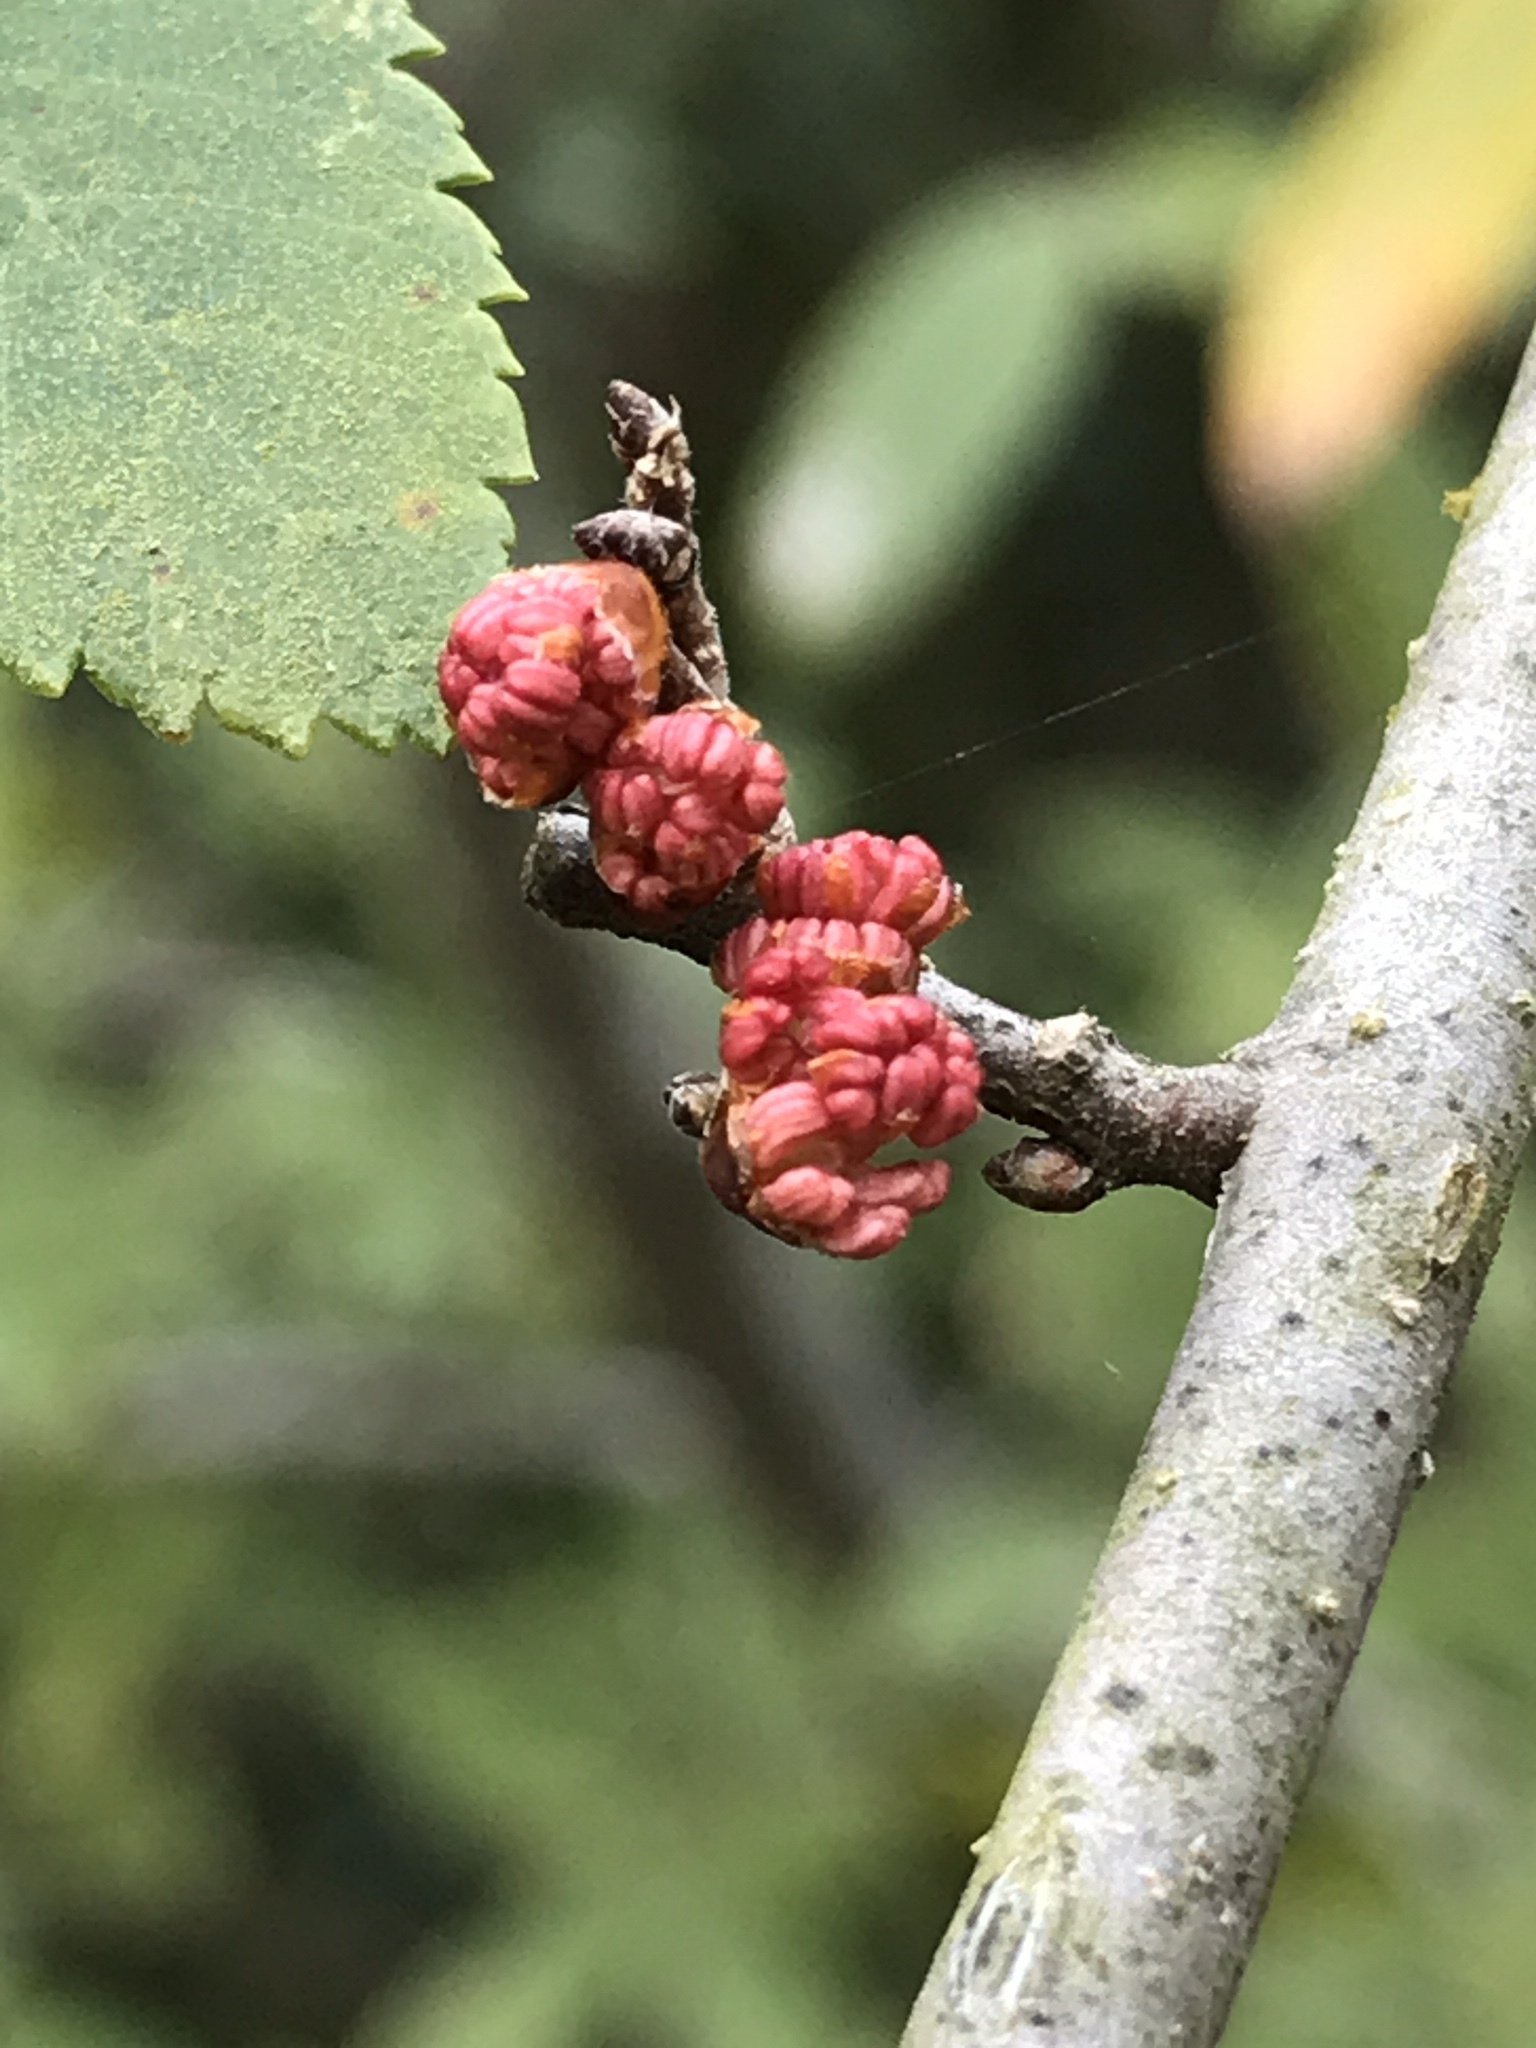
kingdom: Plantae
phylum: Tracheophyta
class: Magnoliopsida
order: Rosales
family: Ulmaceae
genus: Ulmus
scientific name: Ulmus crassifolia
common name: Basket elm
